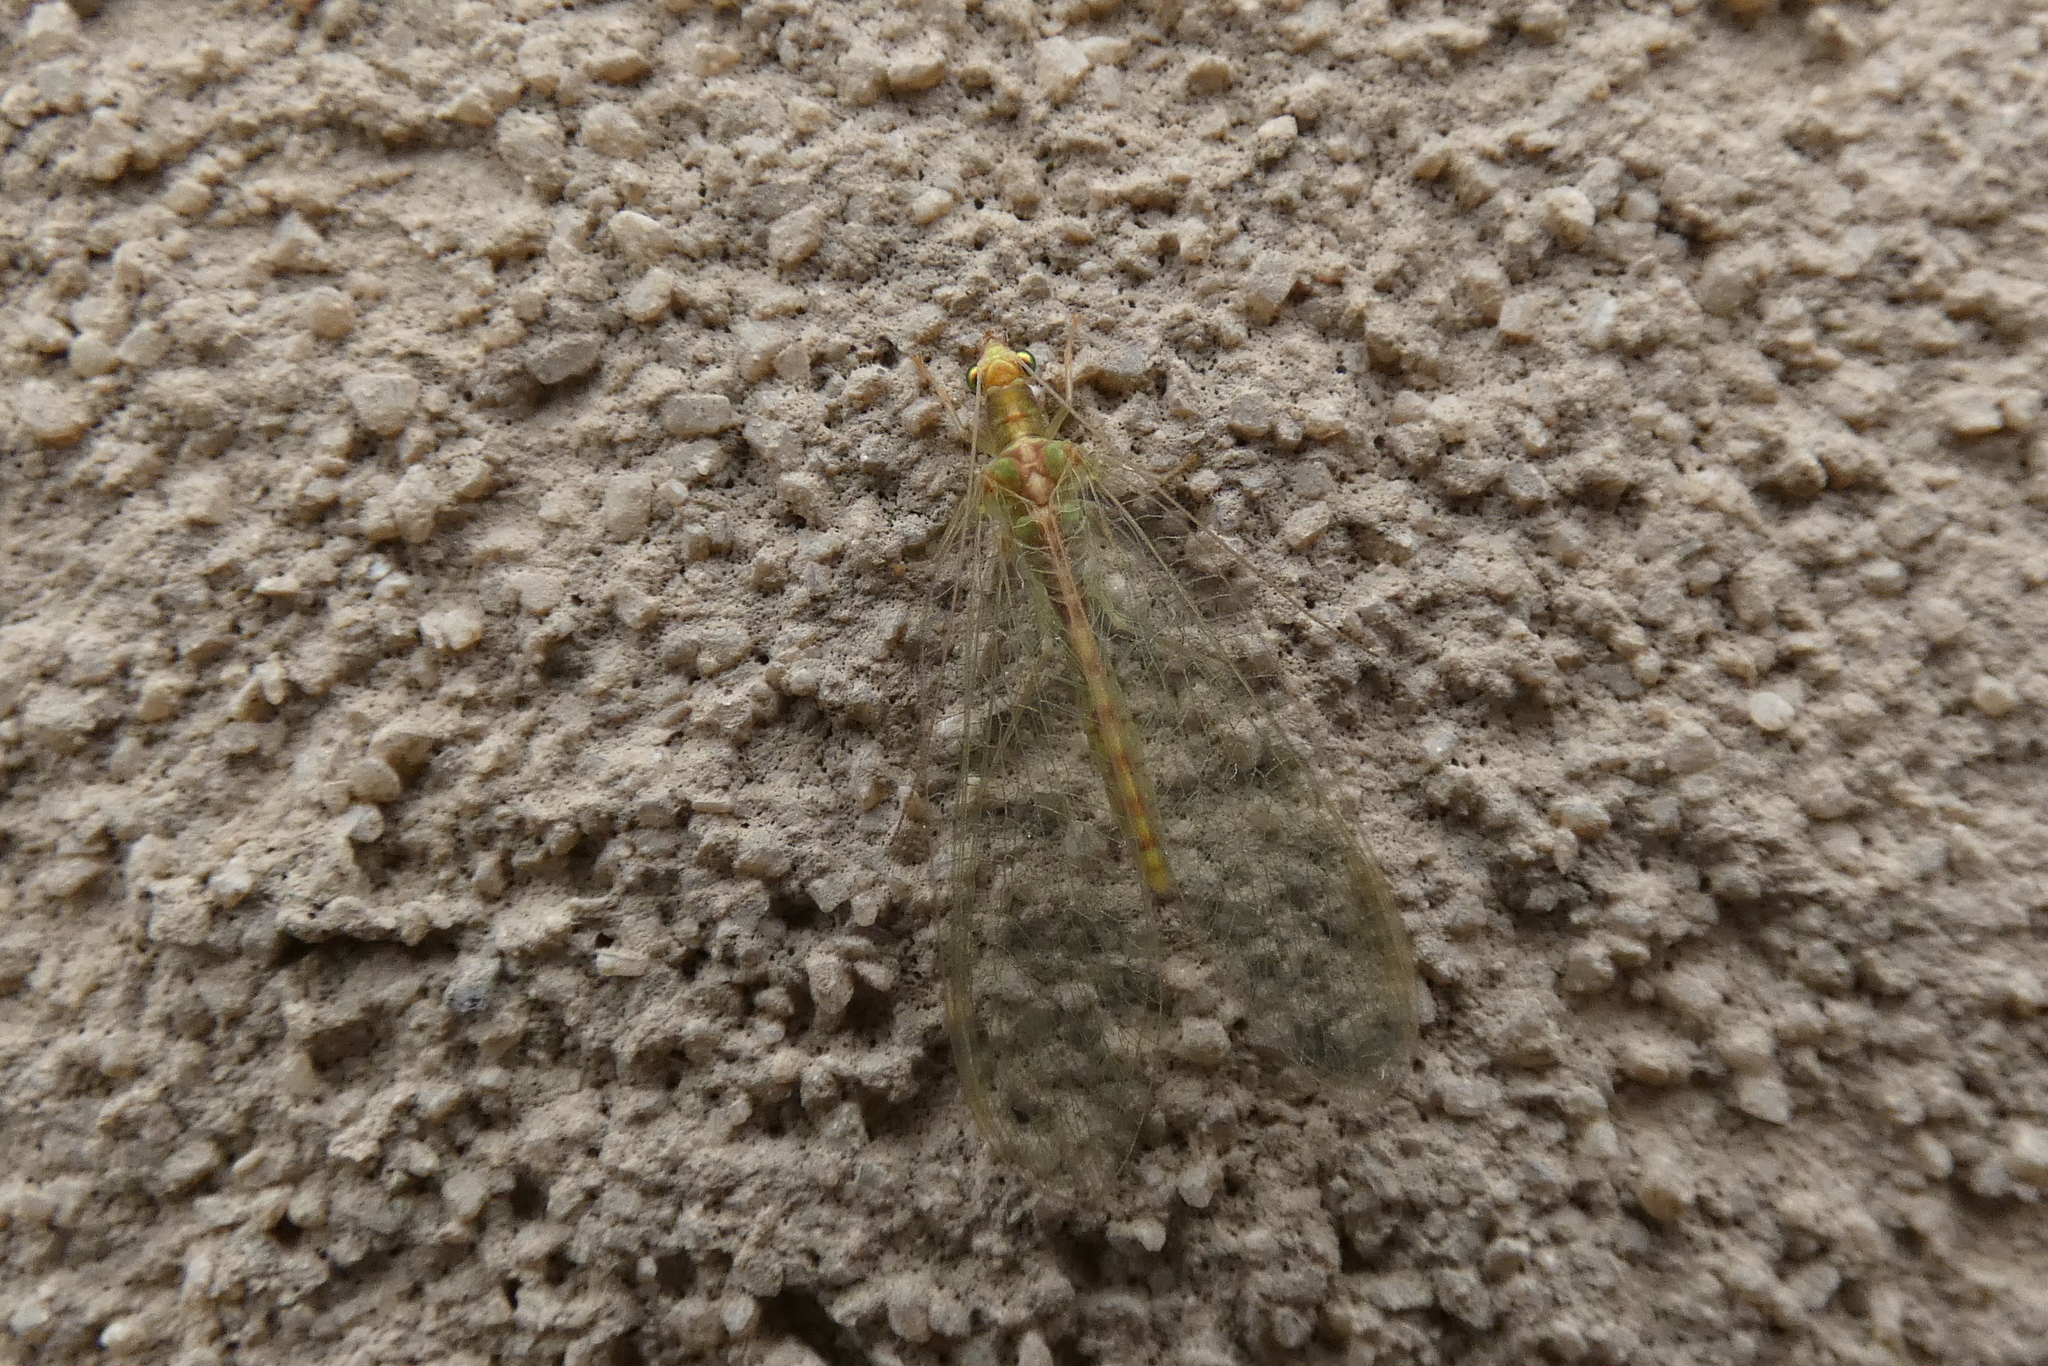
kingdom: Animalia
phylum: Arthropoda
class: Insecta
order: Neuroptera
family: Chrysopidae
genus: Chrysoperla
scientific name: Chrysoperla
